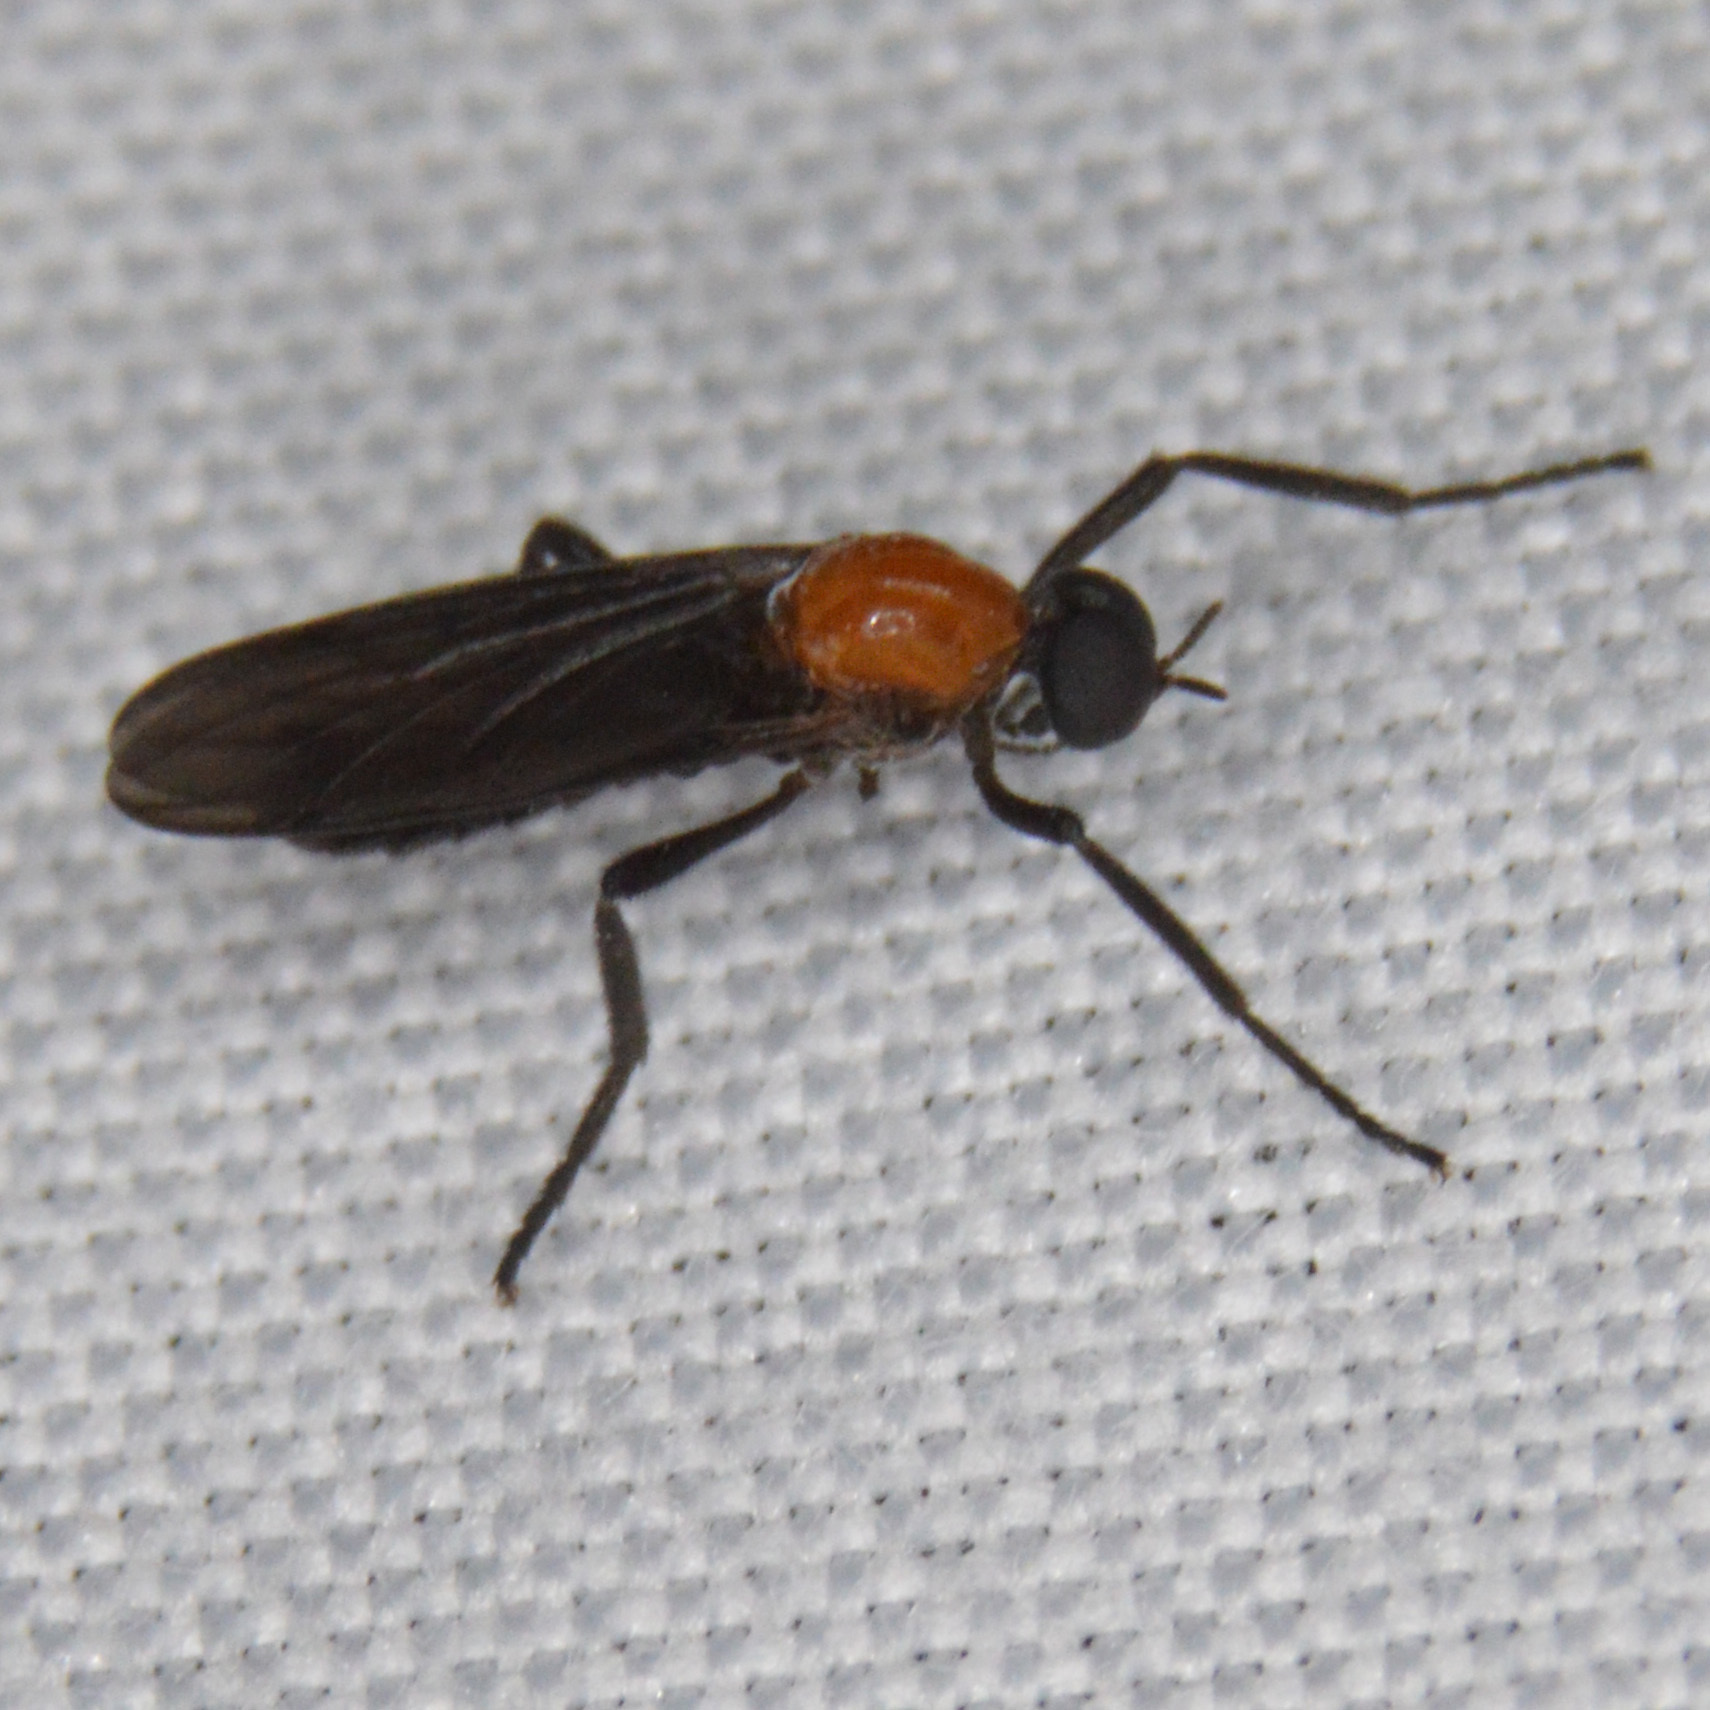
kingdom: Animalia
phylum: Arthropoda
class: Insecta
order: Diptera
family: Bibionidae
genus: Plecia
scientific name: Plecia nearctica
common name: March fly
